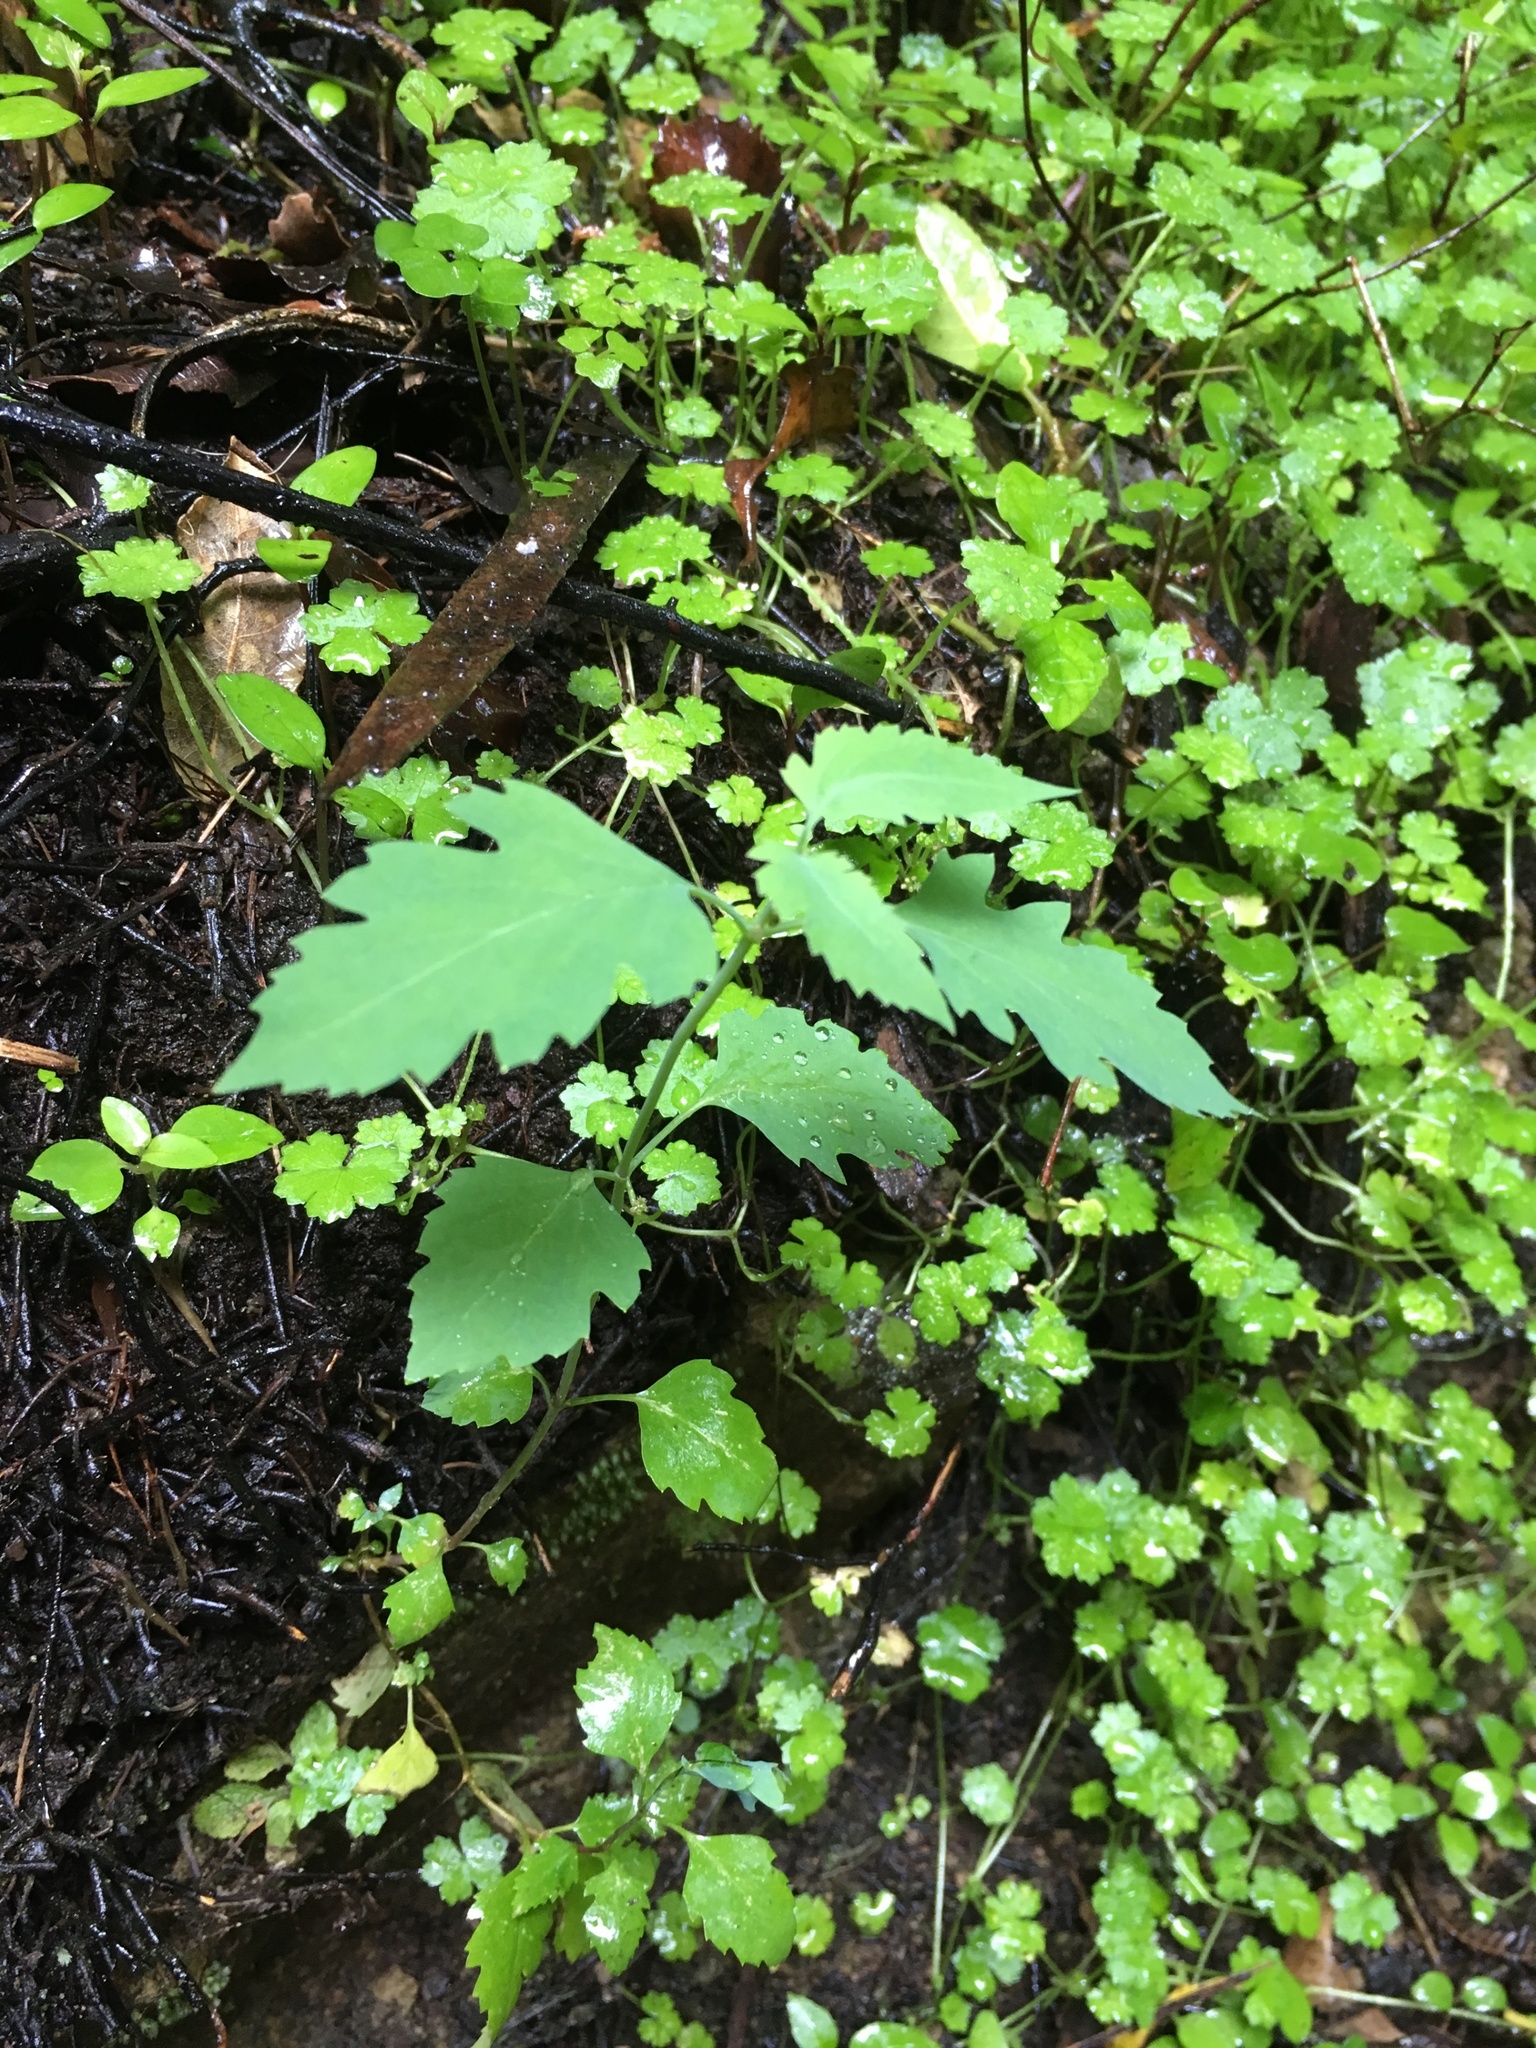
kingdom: Plantae
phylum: Tracheophyta
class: Magnoliopsida
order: Dipsacales
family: Caprifoliaceae
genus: Leycesteria
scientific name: Leycesteria formosa
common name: Himalayan honeysuckle
